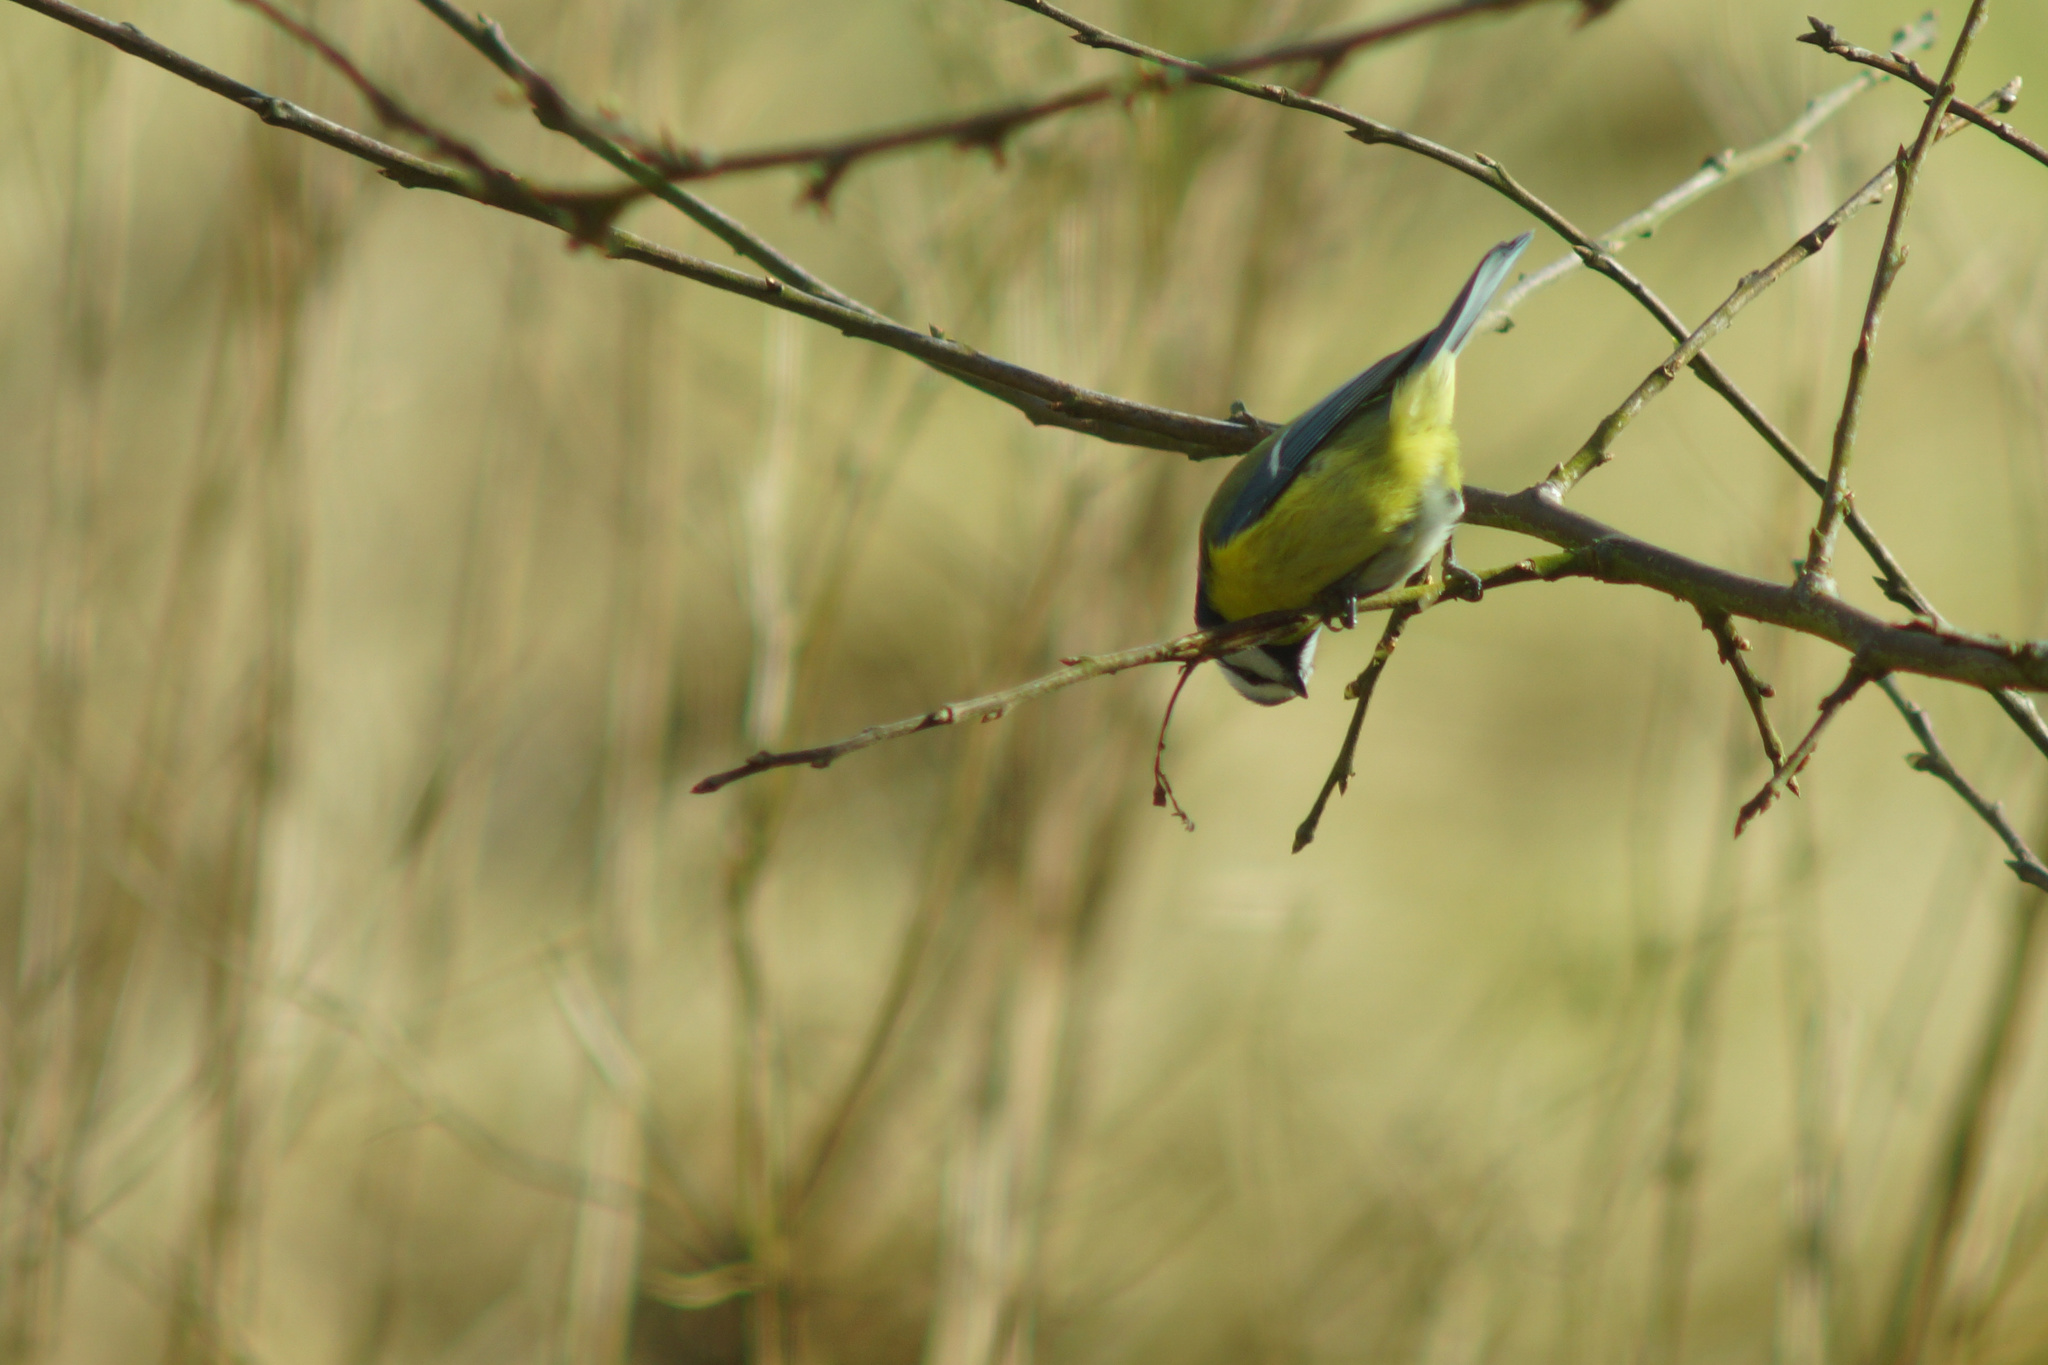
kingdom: Animalia
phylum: Chordata
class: Aves
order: Passeriformes
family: Paridae
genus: Cyanistes
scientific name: Cyanistes caeruleus
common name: Eurasian blue tit
